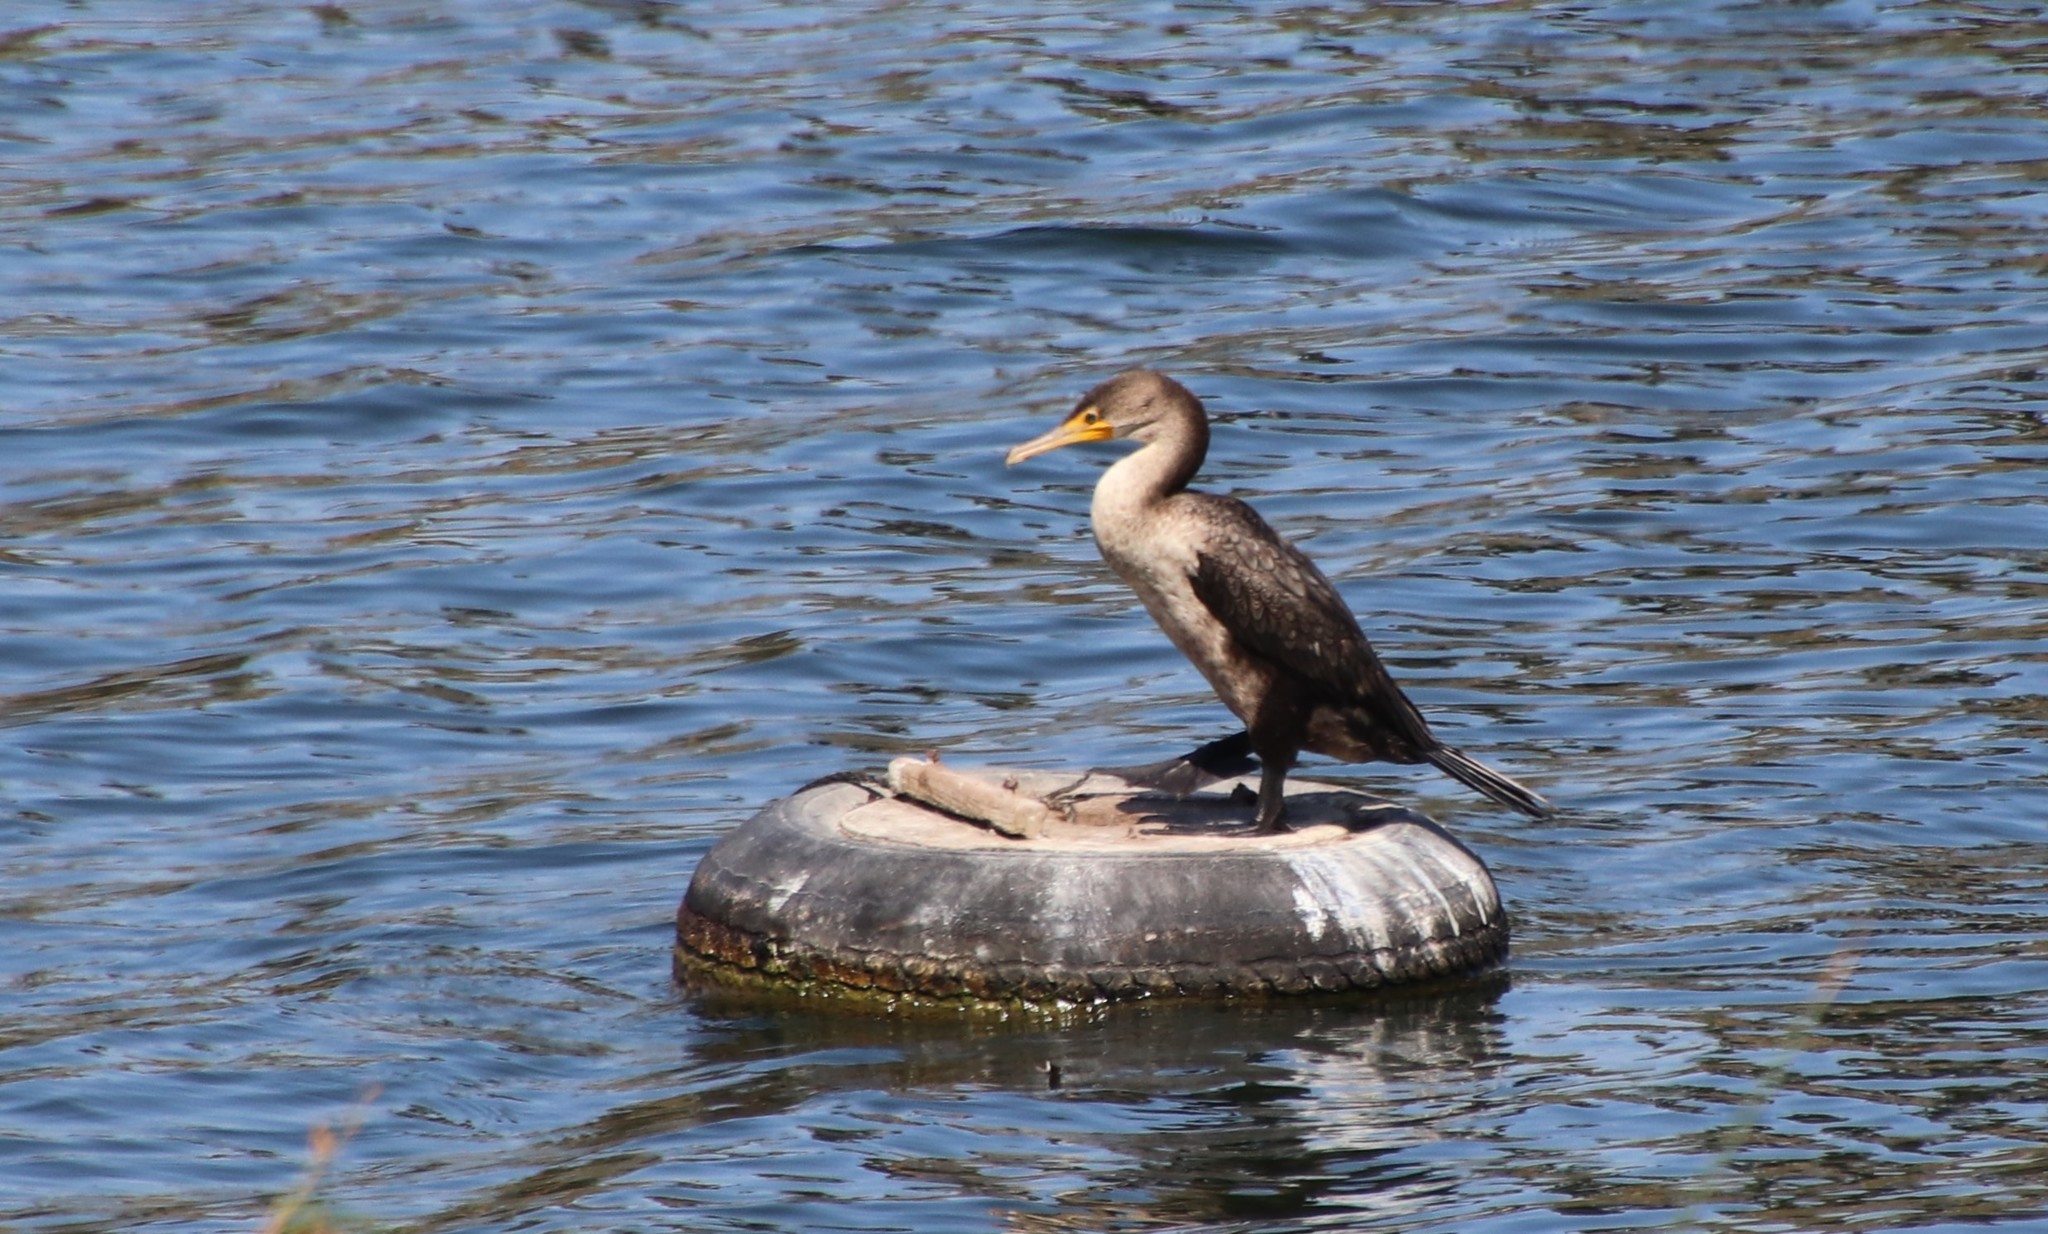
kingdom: Animalia
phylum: Chordata
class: Aves
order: Suliformes
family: Phalacrocoracidae
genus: Phalacrocorax
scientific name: Phalacrocorax auritus
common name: Double-crested cormorant
